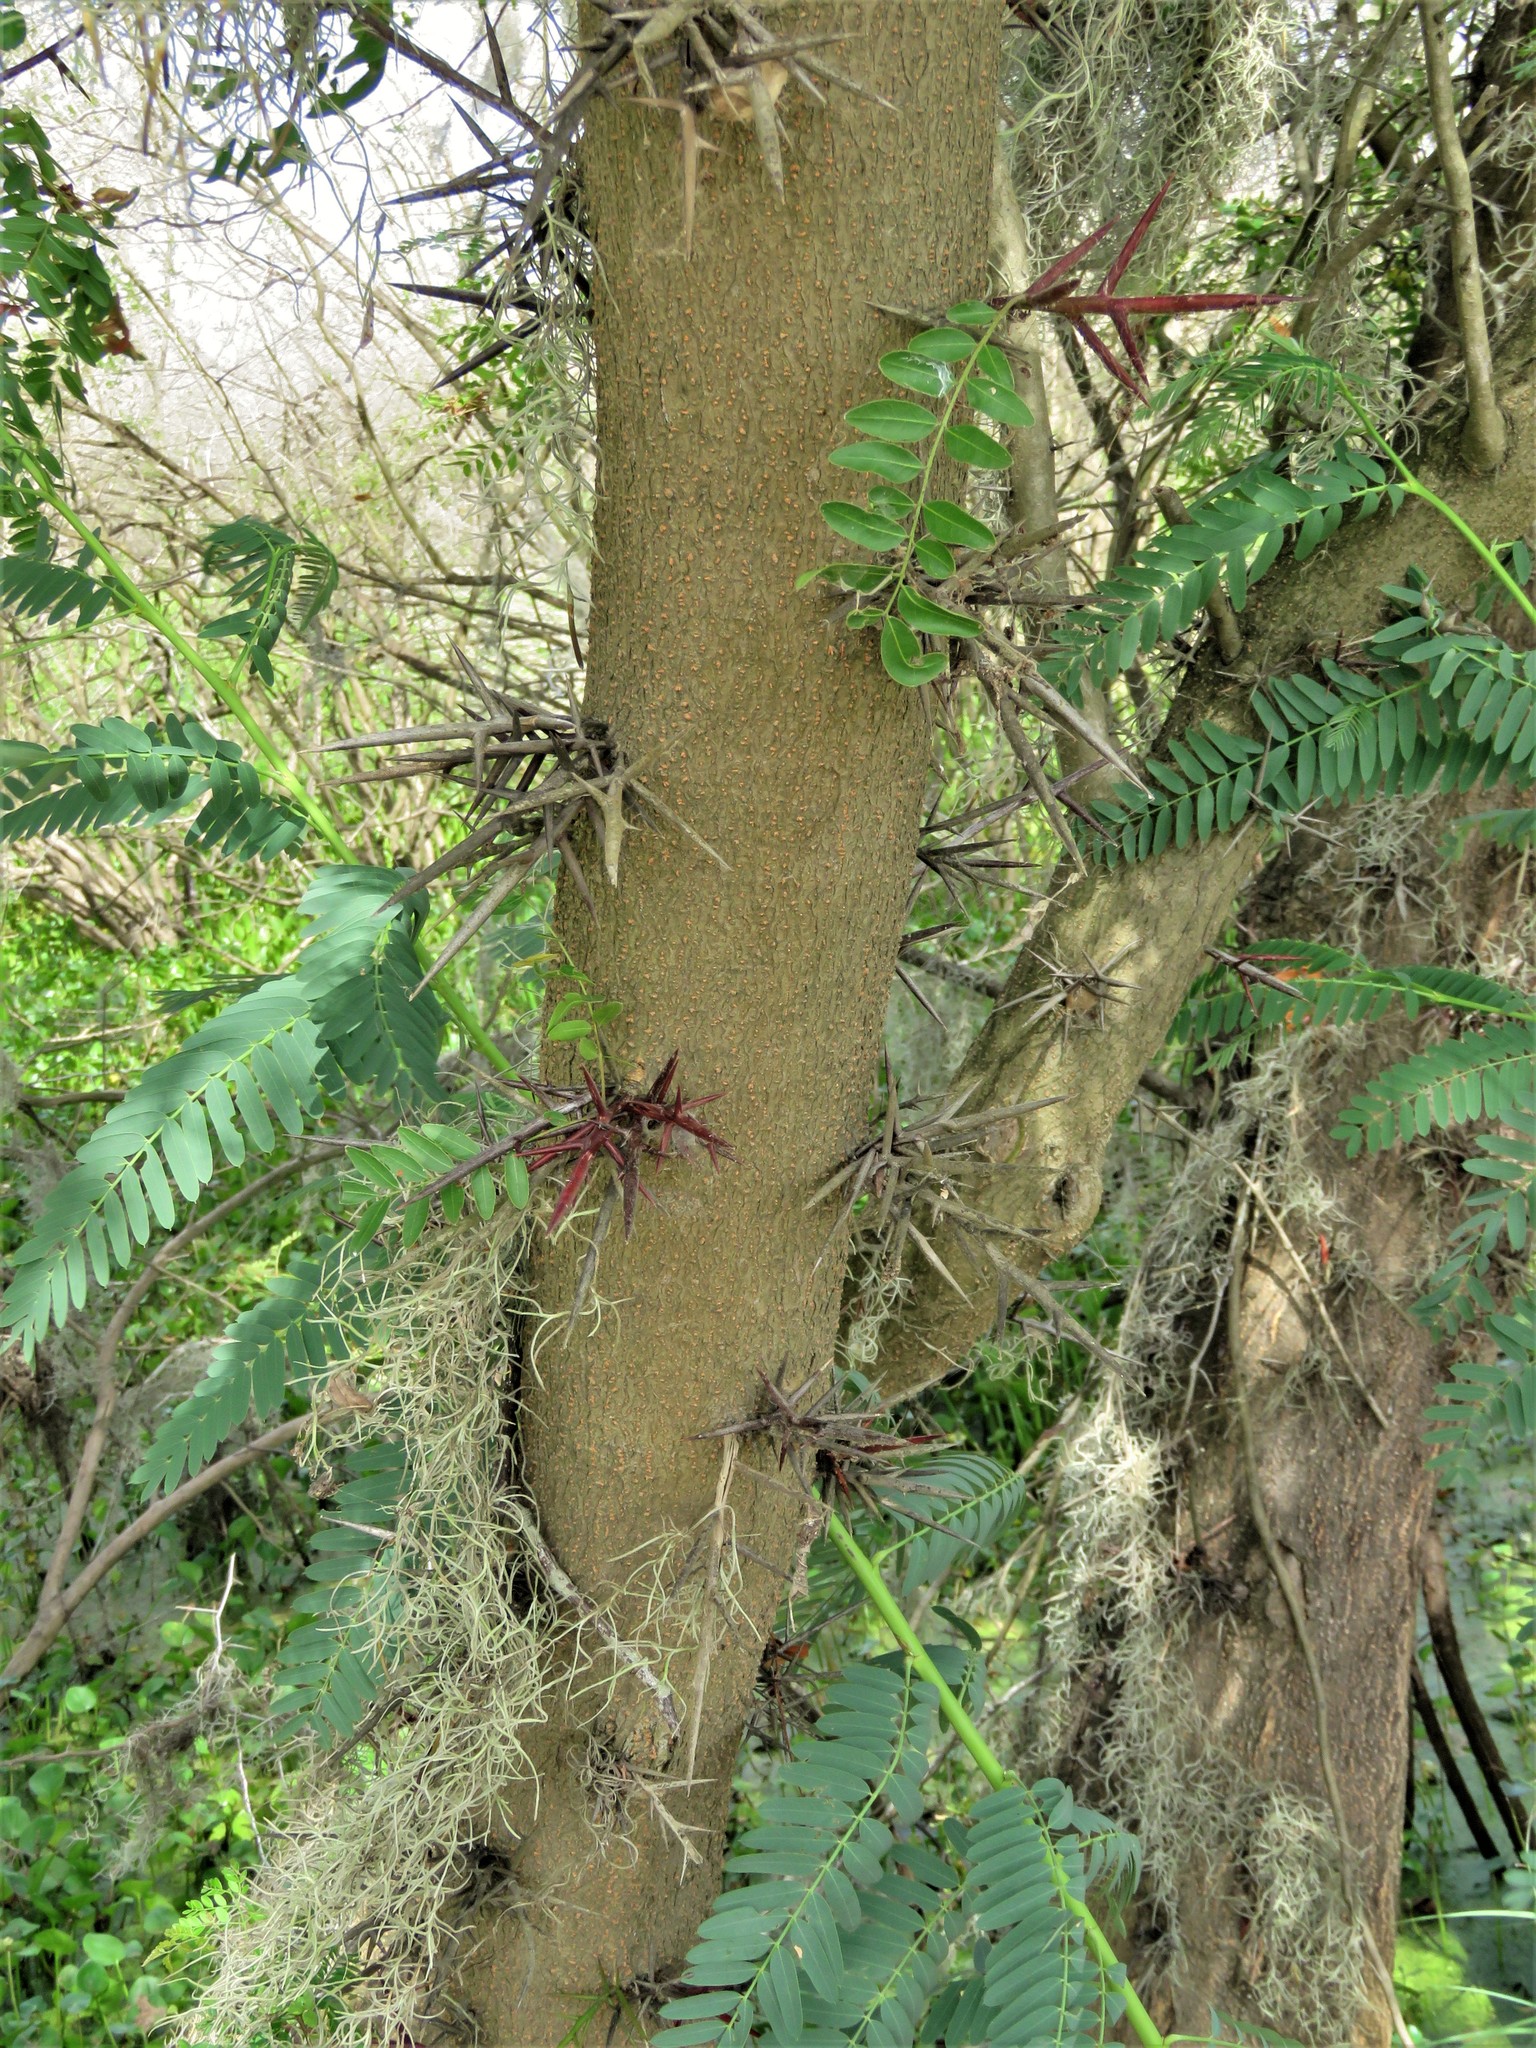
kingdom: Plantae
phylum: Tracheophyta
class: Magnoliopsida
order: Fabales
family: Fabaceae
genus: Gleditsia
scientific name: Gleditsia triacanthos
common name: Common honeylocust
